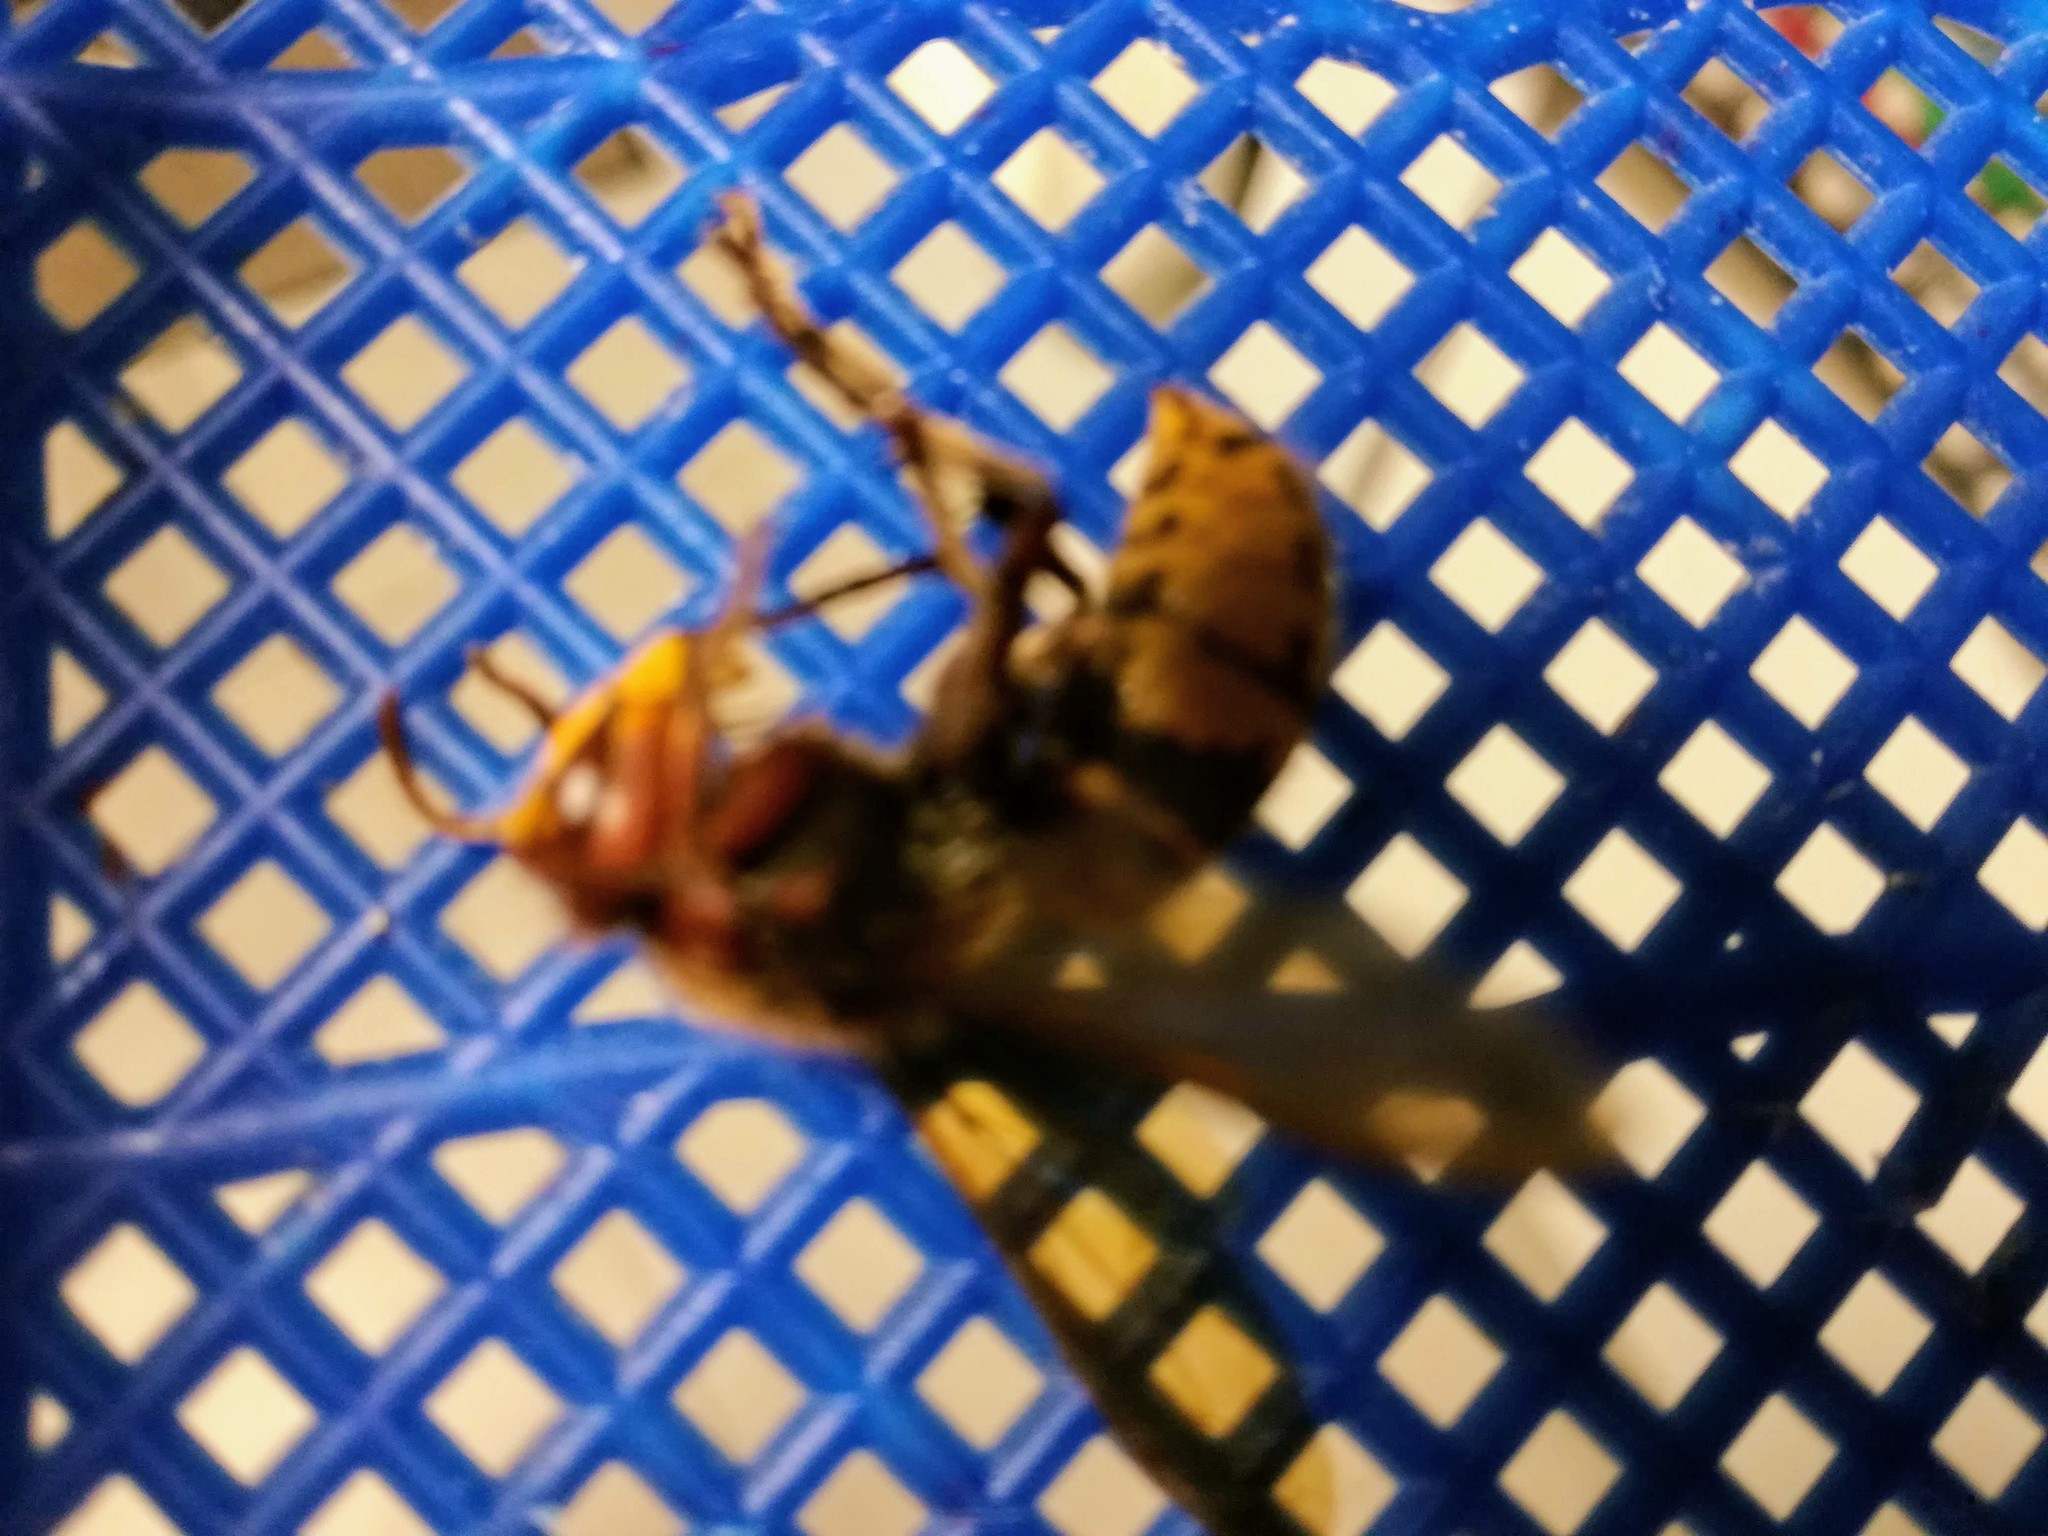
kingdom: Animalia
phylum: Arthropoda
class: Insecta
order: Hymenoptera
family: Vespidae
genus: Vespa
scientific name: Vespa crabro
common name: Hornet
